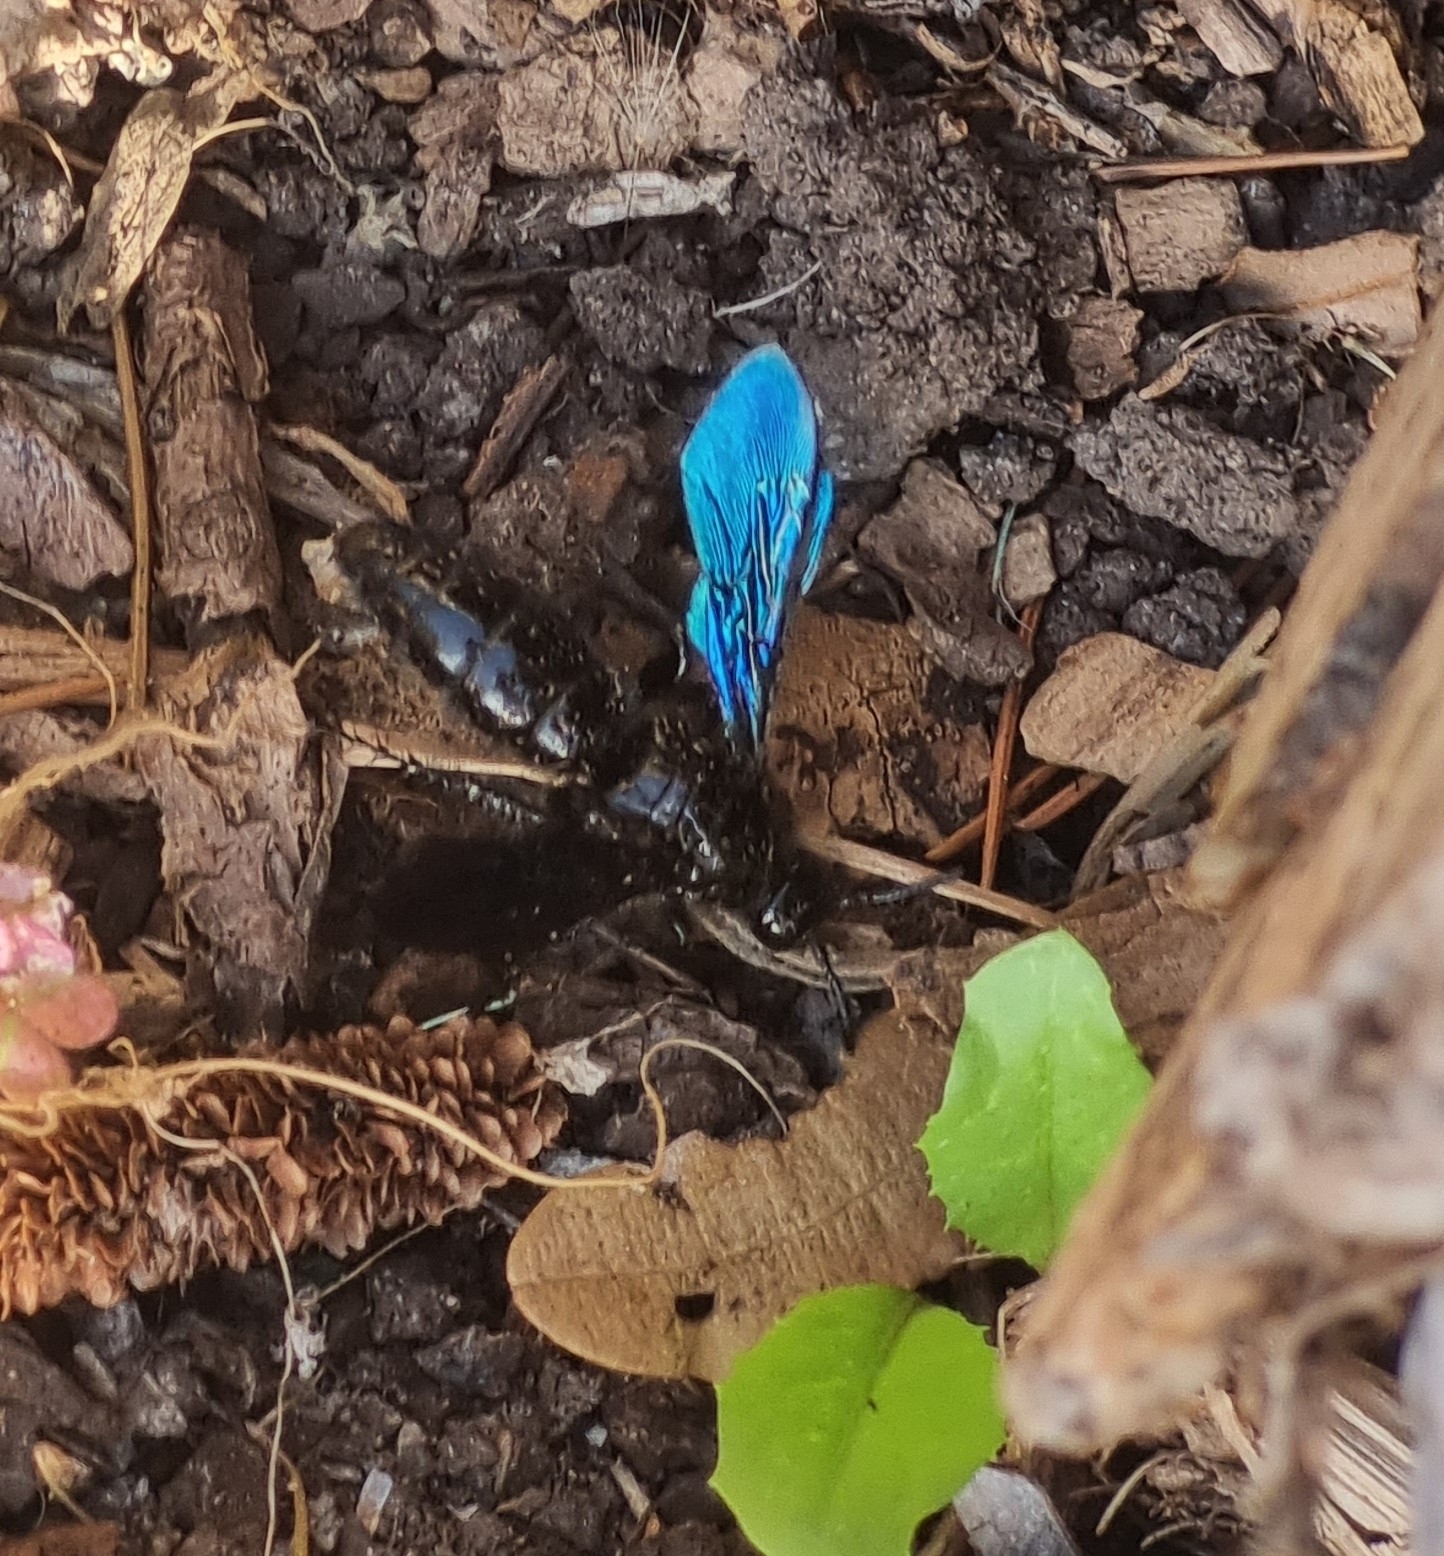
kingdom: Animalia
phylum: Arthropoda
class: Insecta
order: Hymenoptera
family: Scoliidae
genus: Austroscolia
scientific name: Austroscolia
